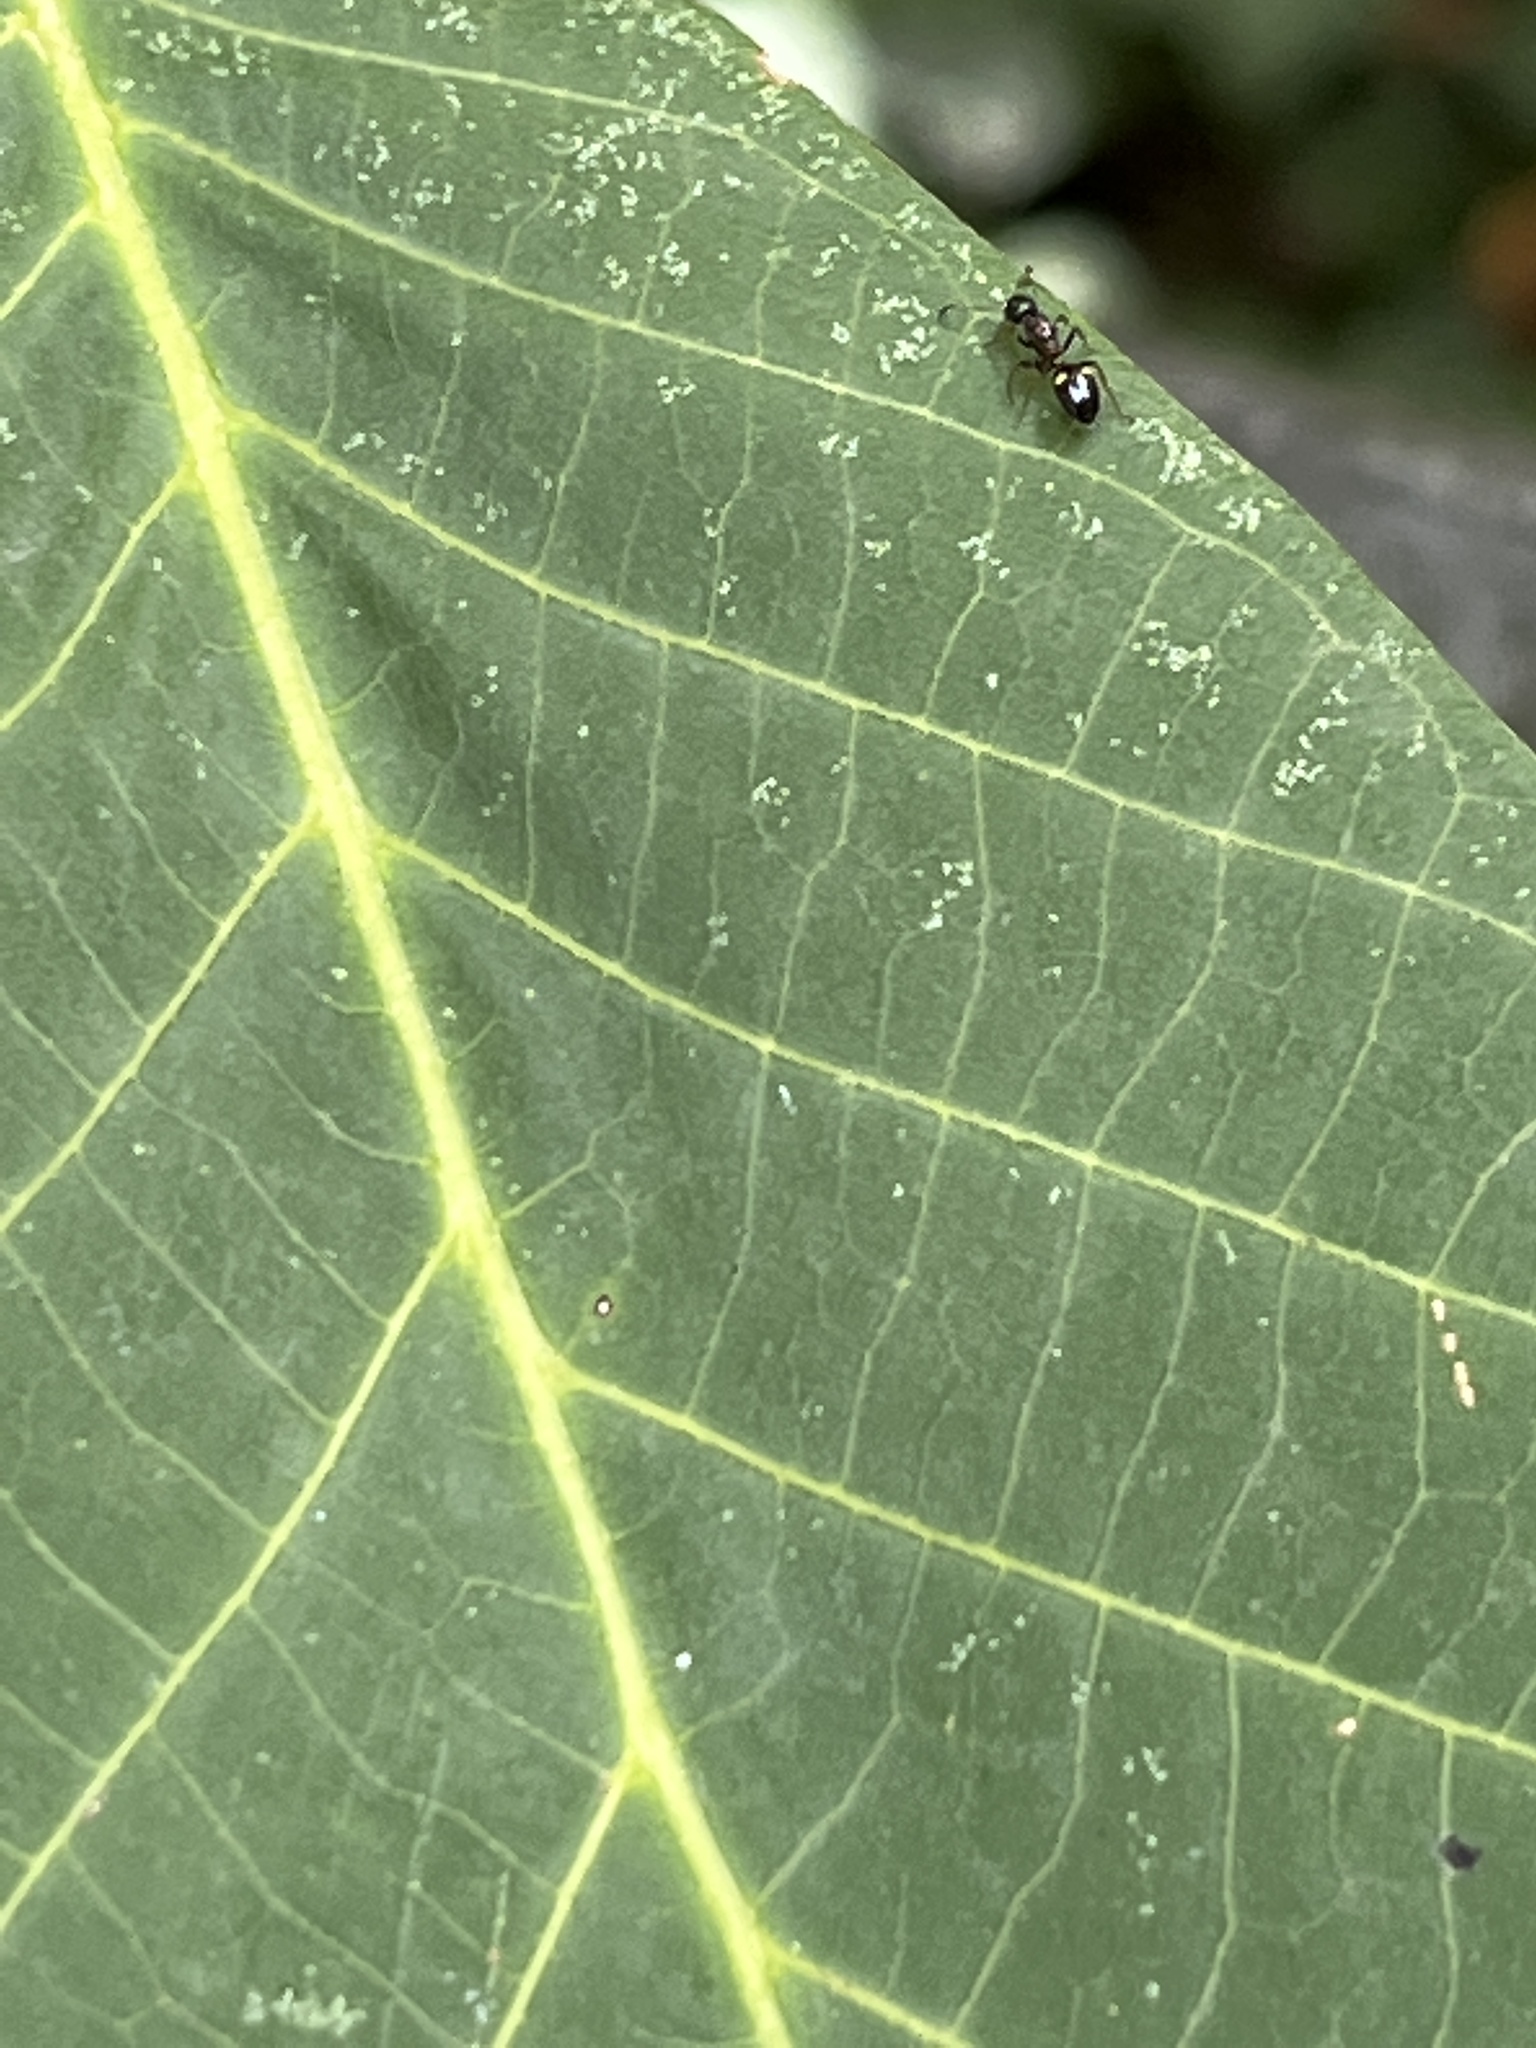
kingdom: Animalia
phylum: Arthropoda
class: Insecta
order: Hymenoptera
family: Formicidae
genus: Dolichoderus
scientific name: Dolichoderus quadripunctatus
